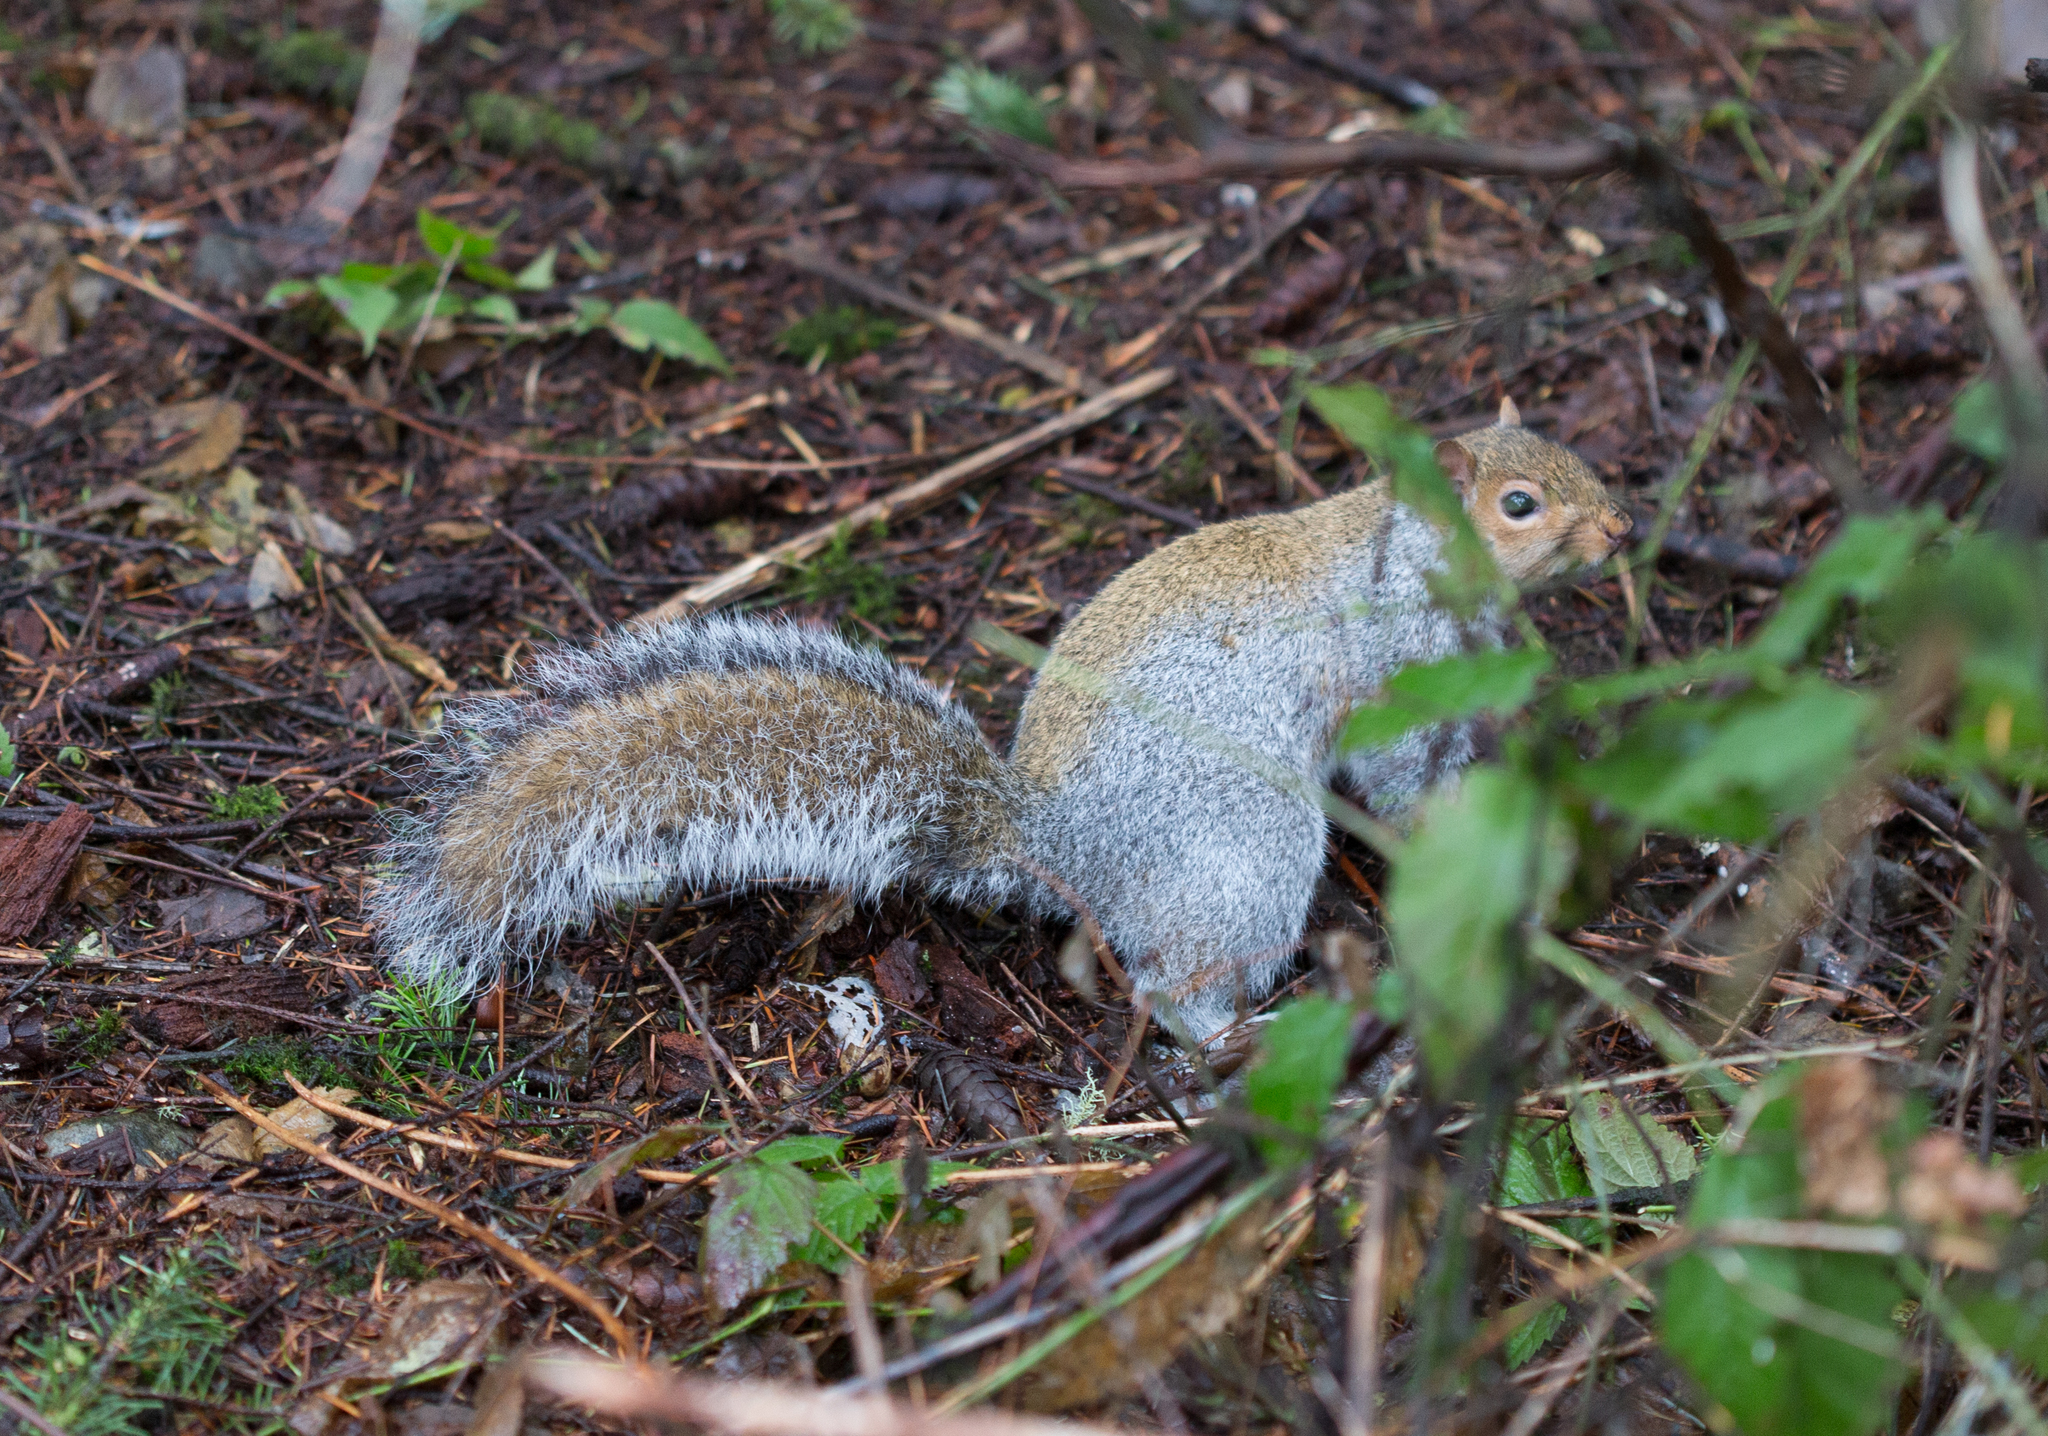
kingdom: Animalia
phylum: Chordata
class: Mammalia
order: Rodentia
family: Sciuridae
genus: Sciurus
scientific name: Sciurus carolinensis
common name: Eastern gray squirrel
